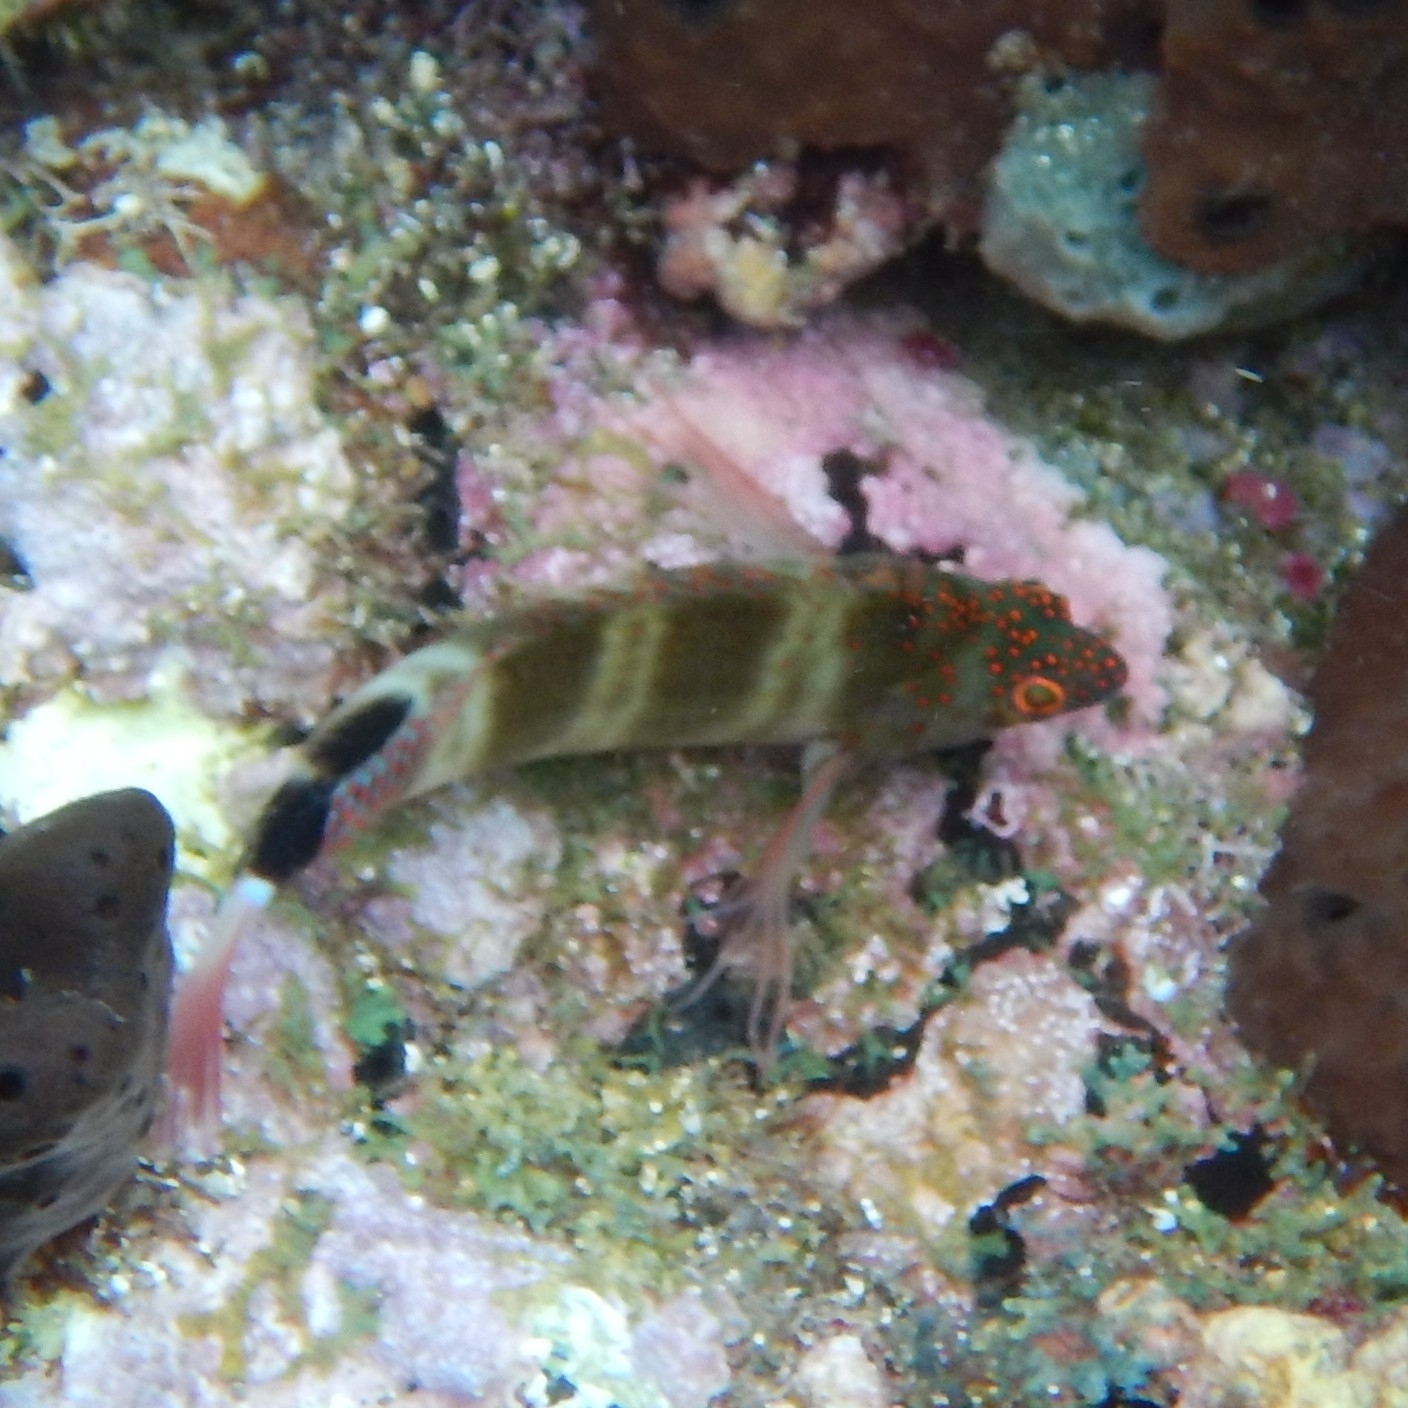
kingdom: Animalia
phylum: Chordata
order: Perciformes
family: Cirrhitidae
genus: Amblycirrhitus
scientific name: Amblycirrhitus pinos
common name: Redspotted hawkfish
